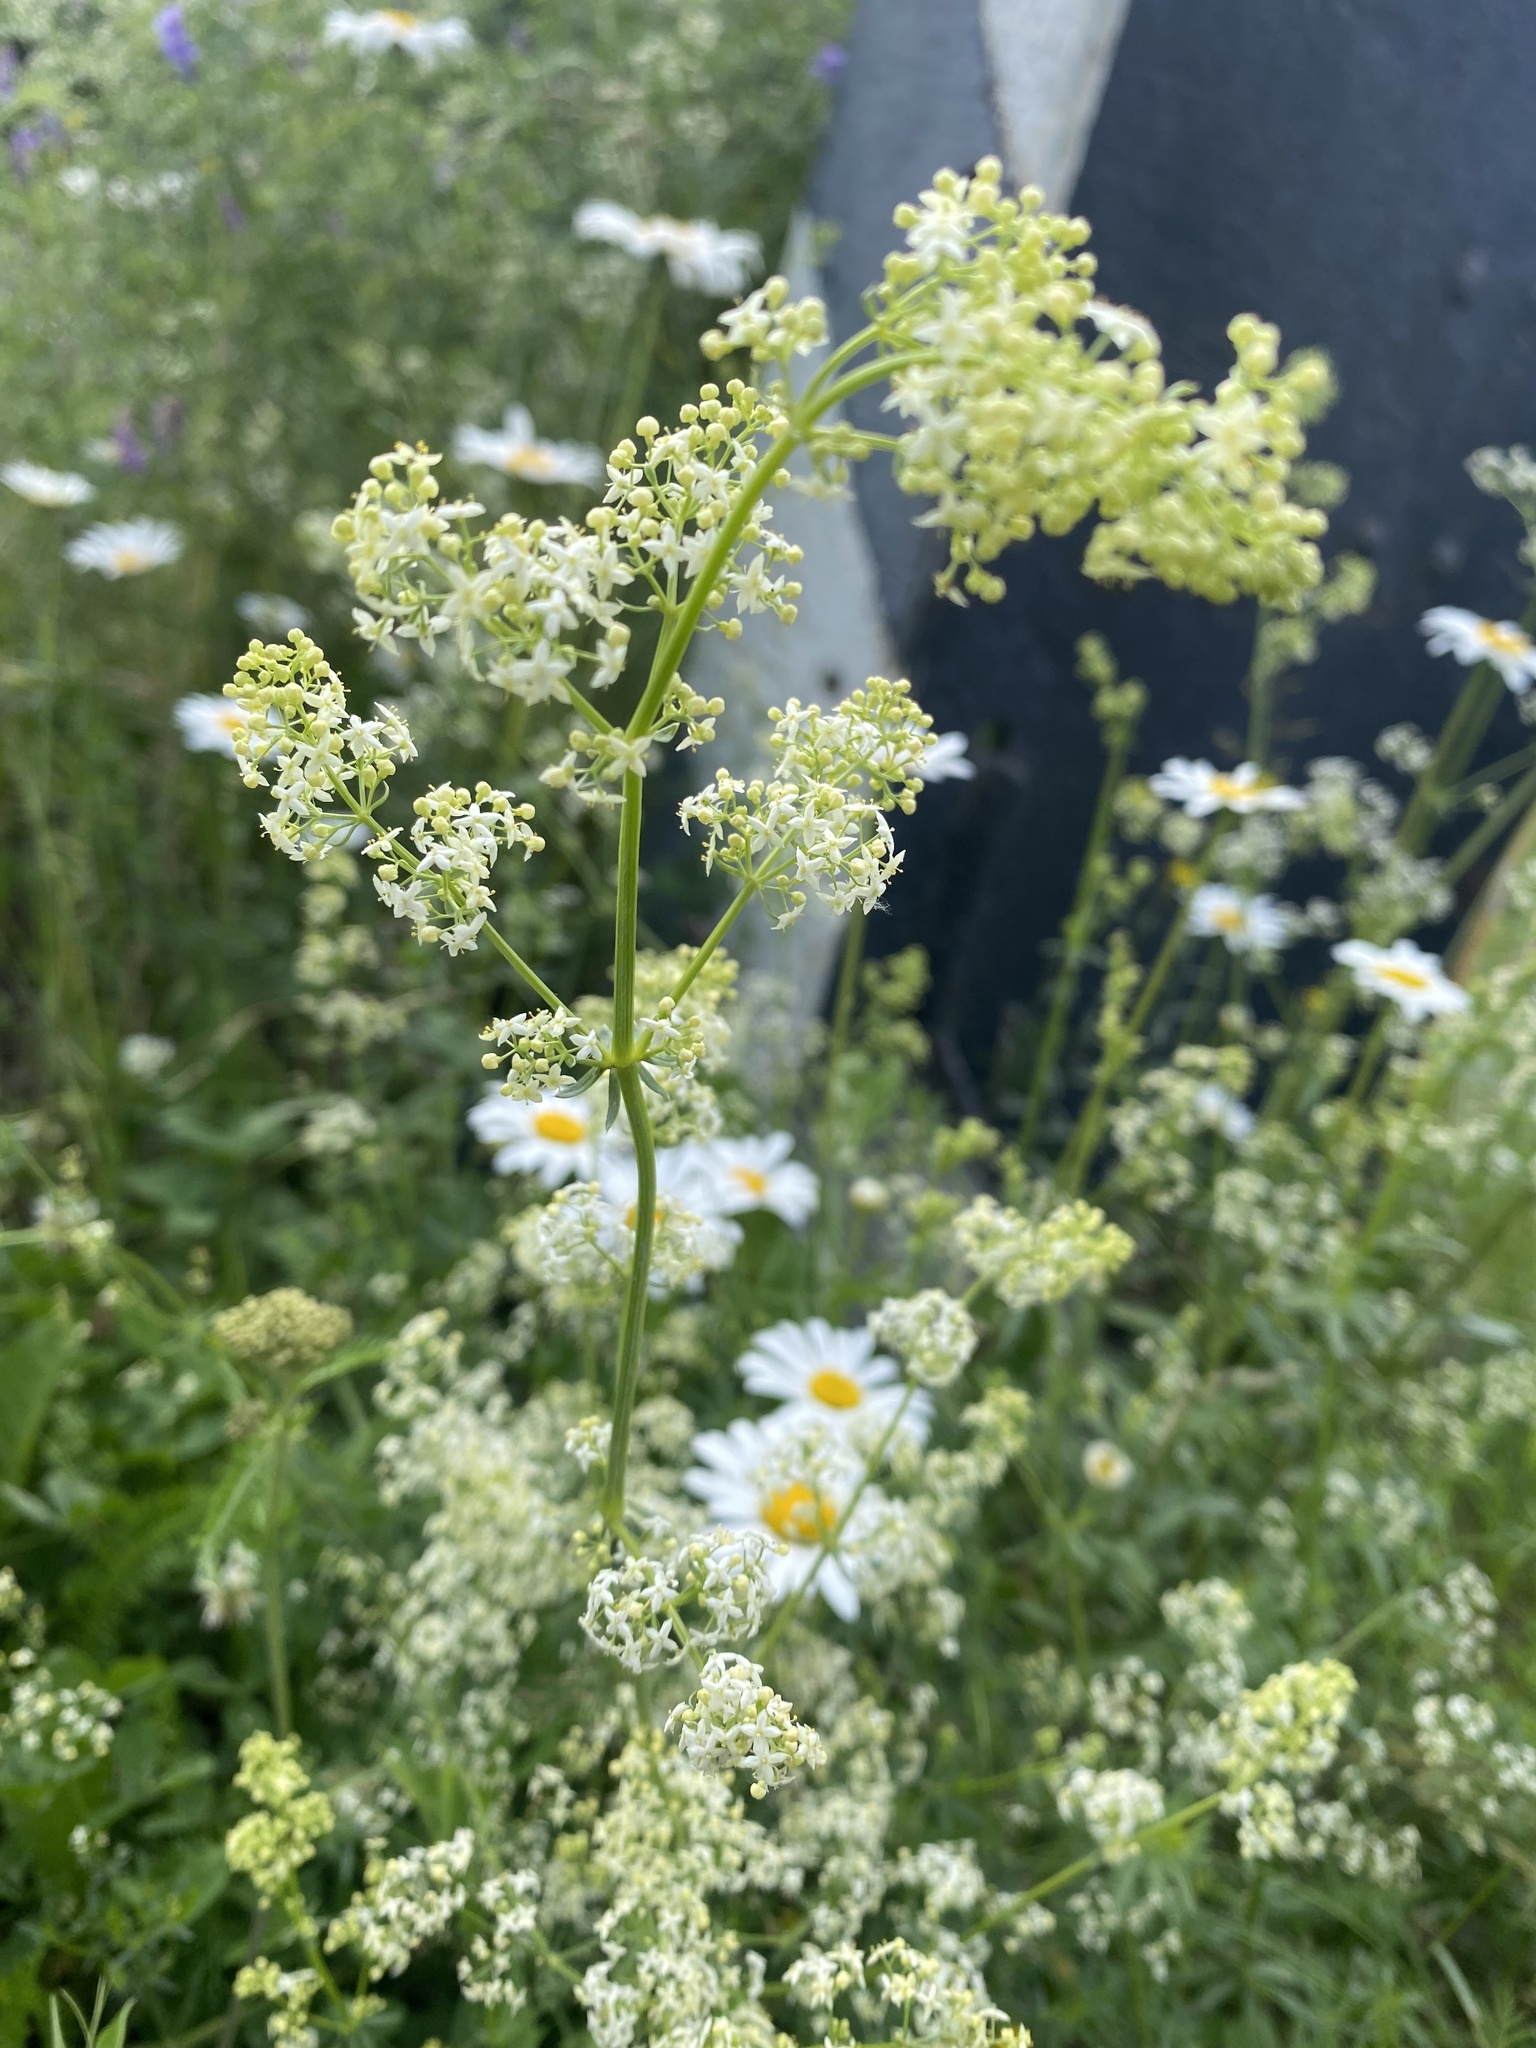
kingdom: Plantae
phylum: Tracheophyta
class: Magnoliopsida
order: Gentianales
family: Rubiaceae
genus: Galium
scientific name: Galium mollugo
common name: Hedge bedstraw
